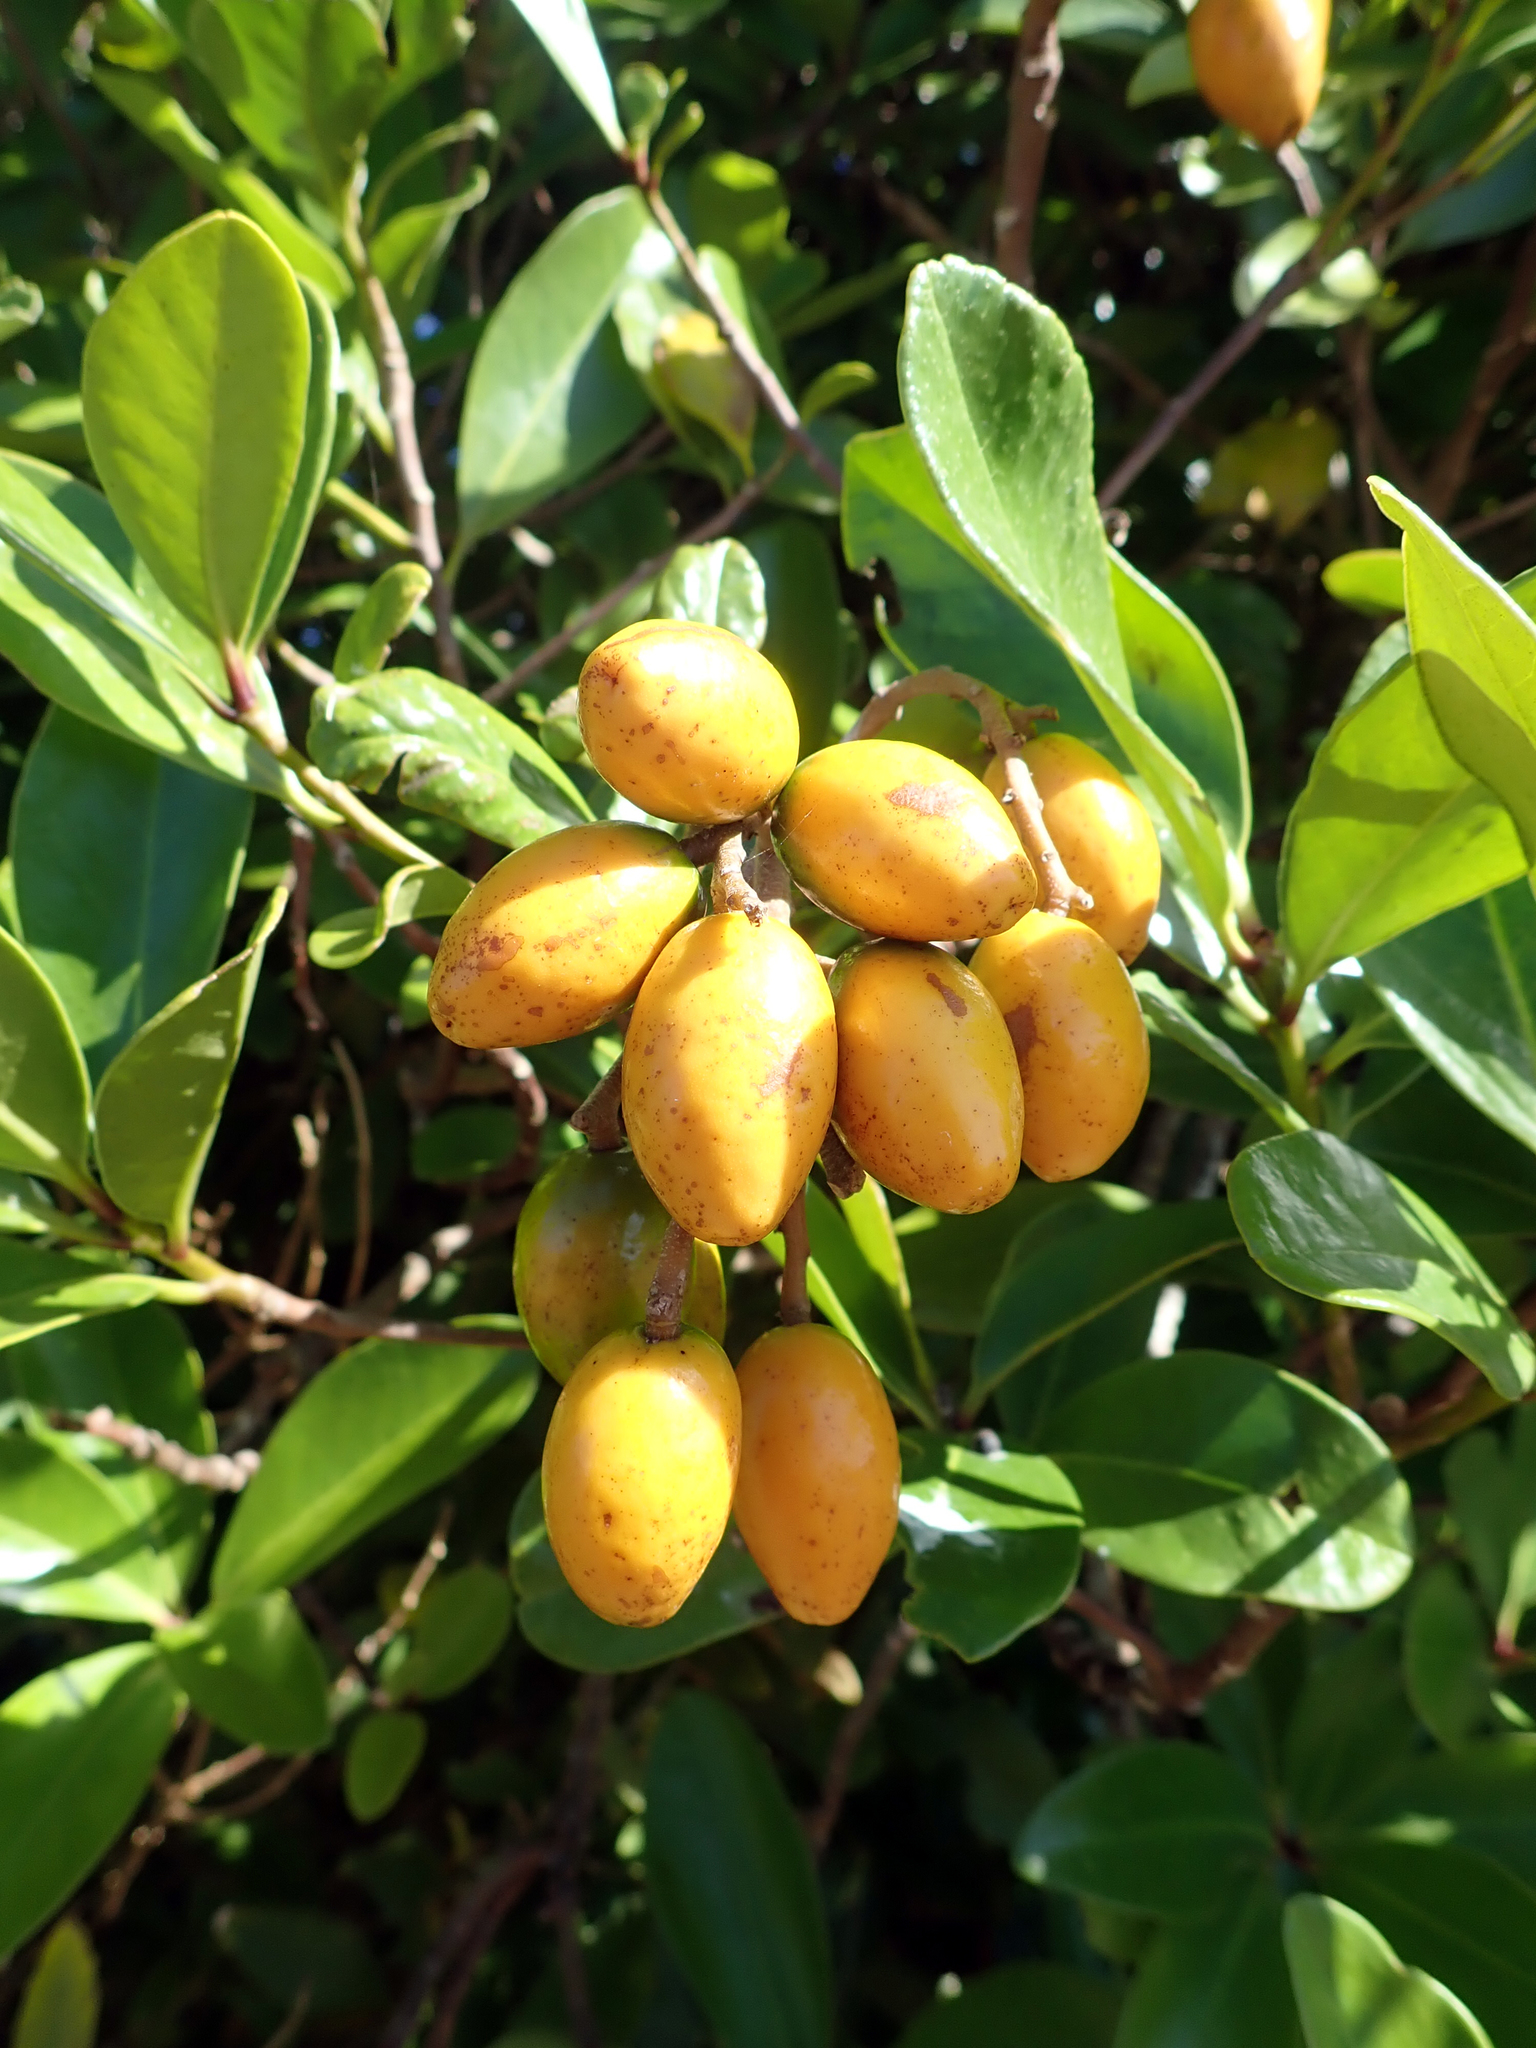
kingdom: Plantae
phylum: Tracheophyta
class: Magnoliopsida
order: Cucurbitales
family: Corynocarpaceae
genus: Corynocarpus
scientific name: Corynocarpus laevigatus
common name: New zealand laurel
